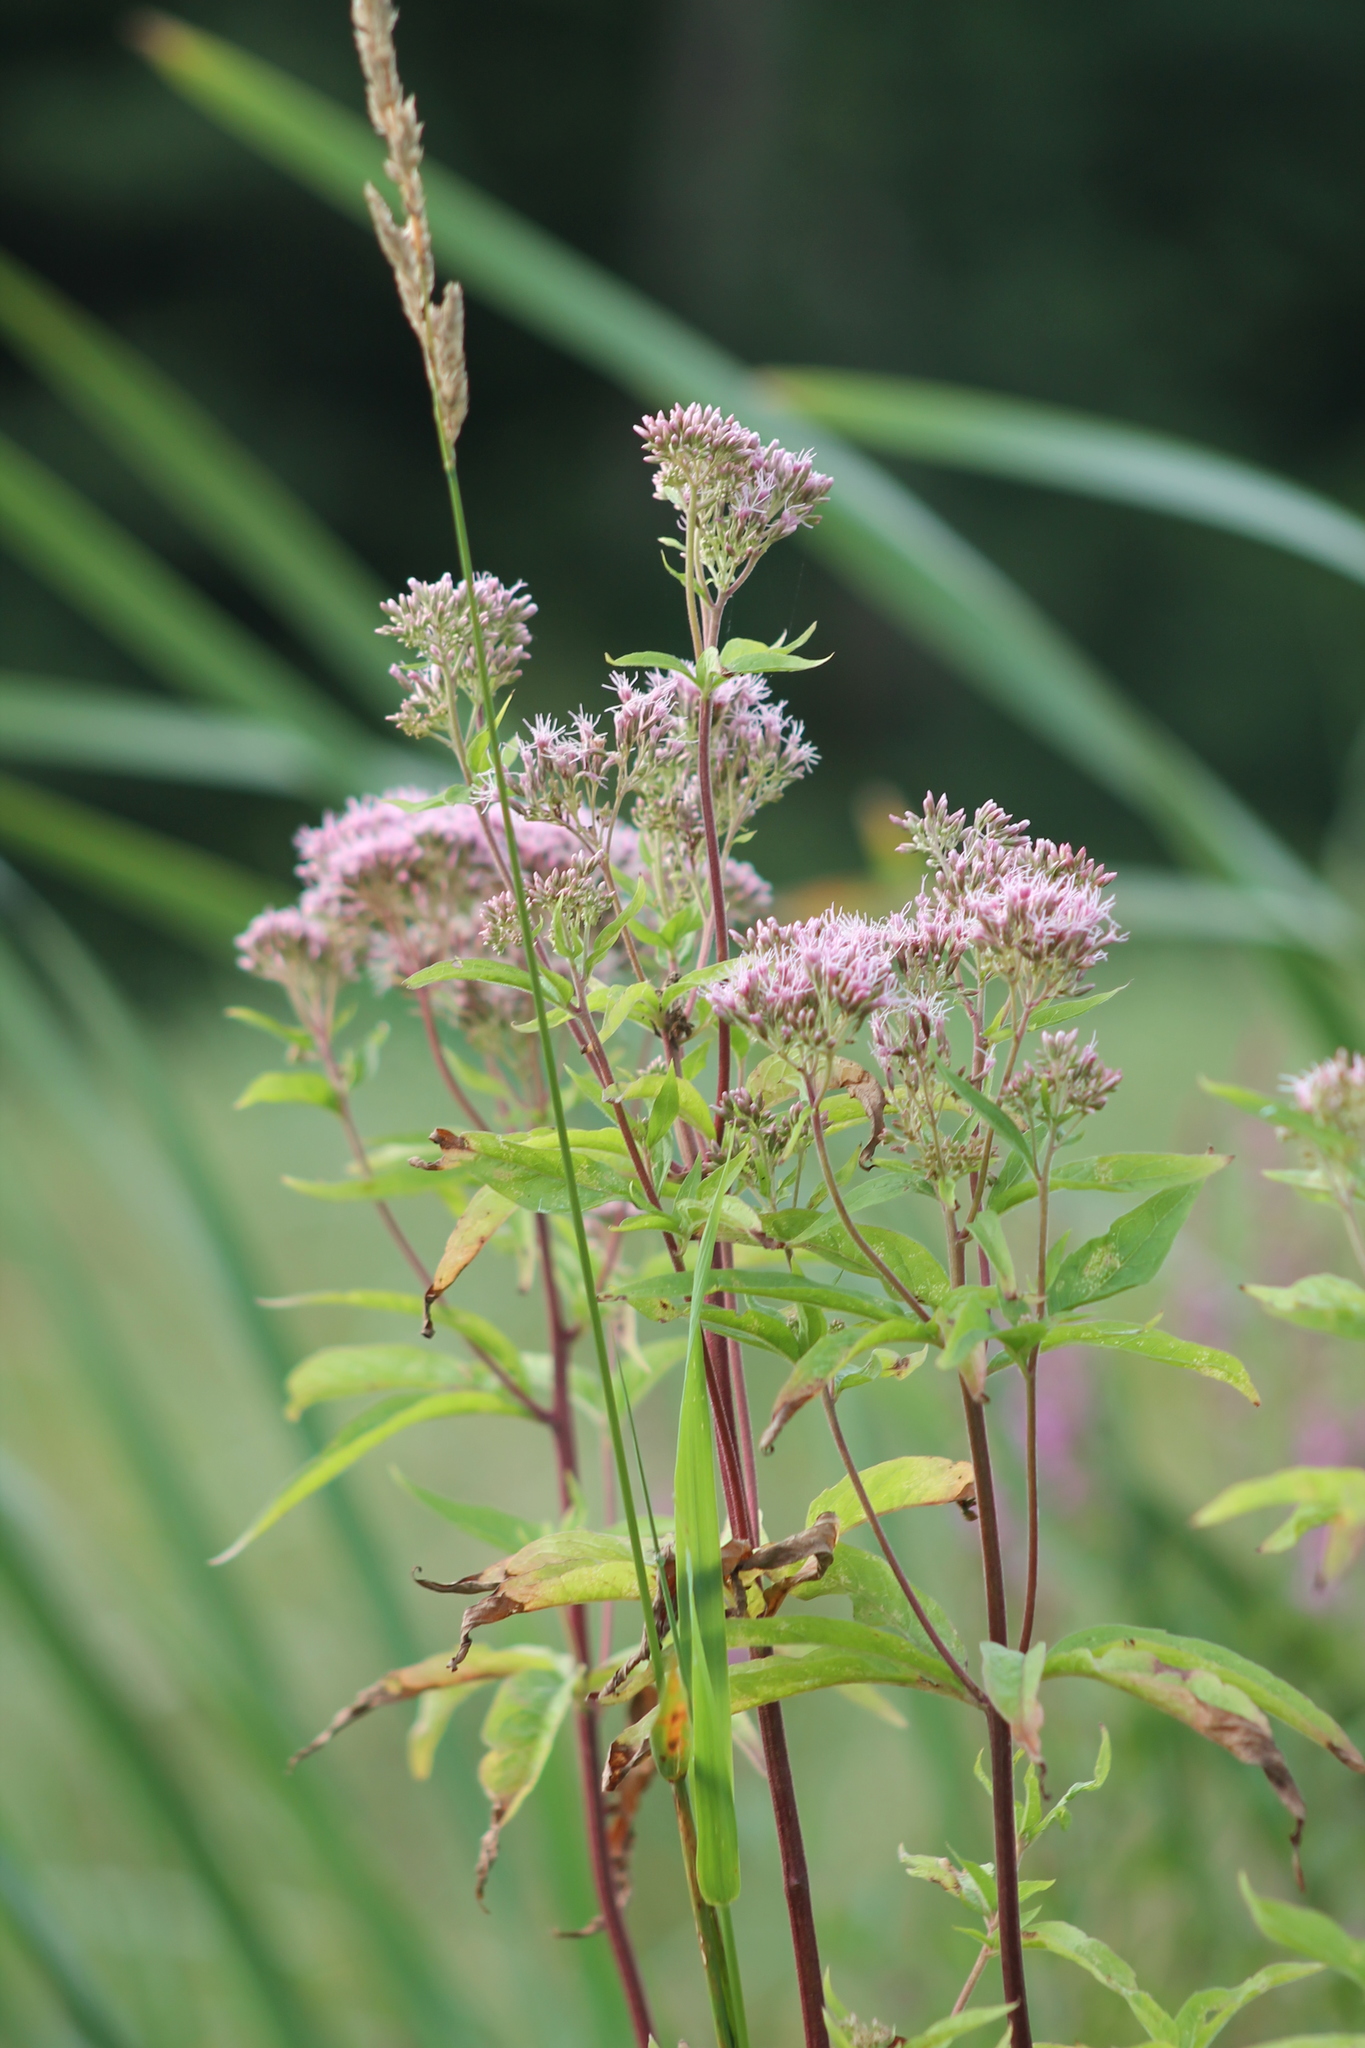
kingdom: Plantae
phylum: Tracheophyta
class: Magnoliopsida
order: Asterales
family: Asteraceae
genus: Eupatorium
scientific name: Eupatorium cannabinum
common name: Hemp-agrimony
